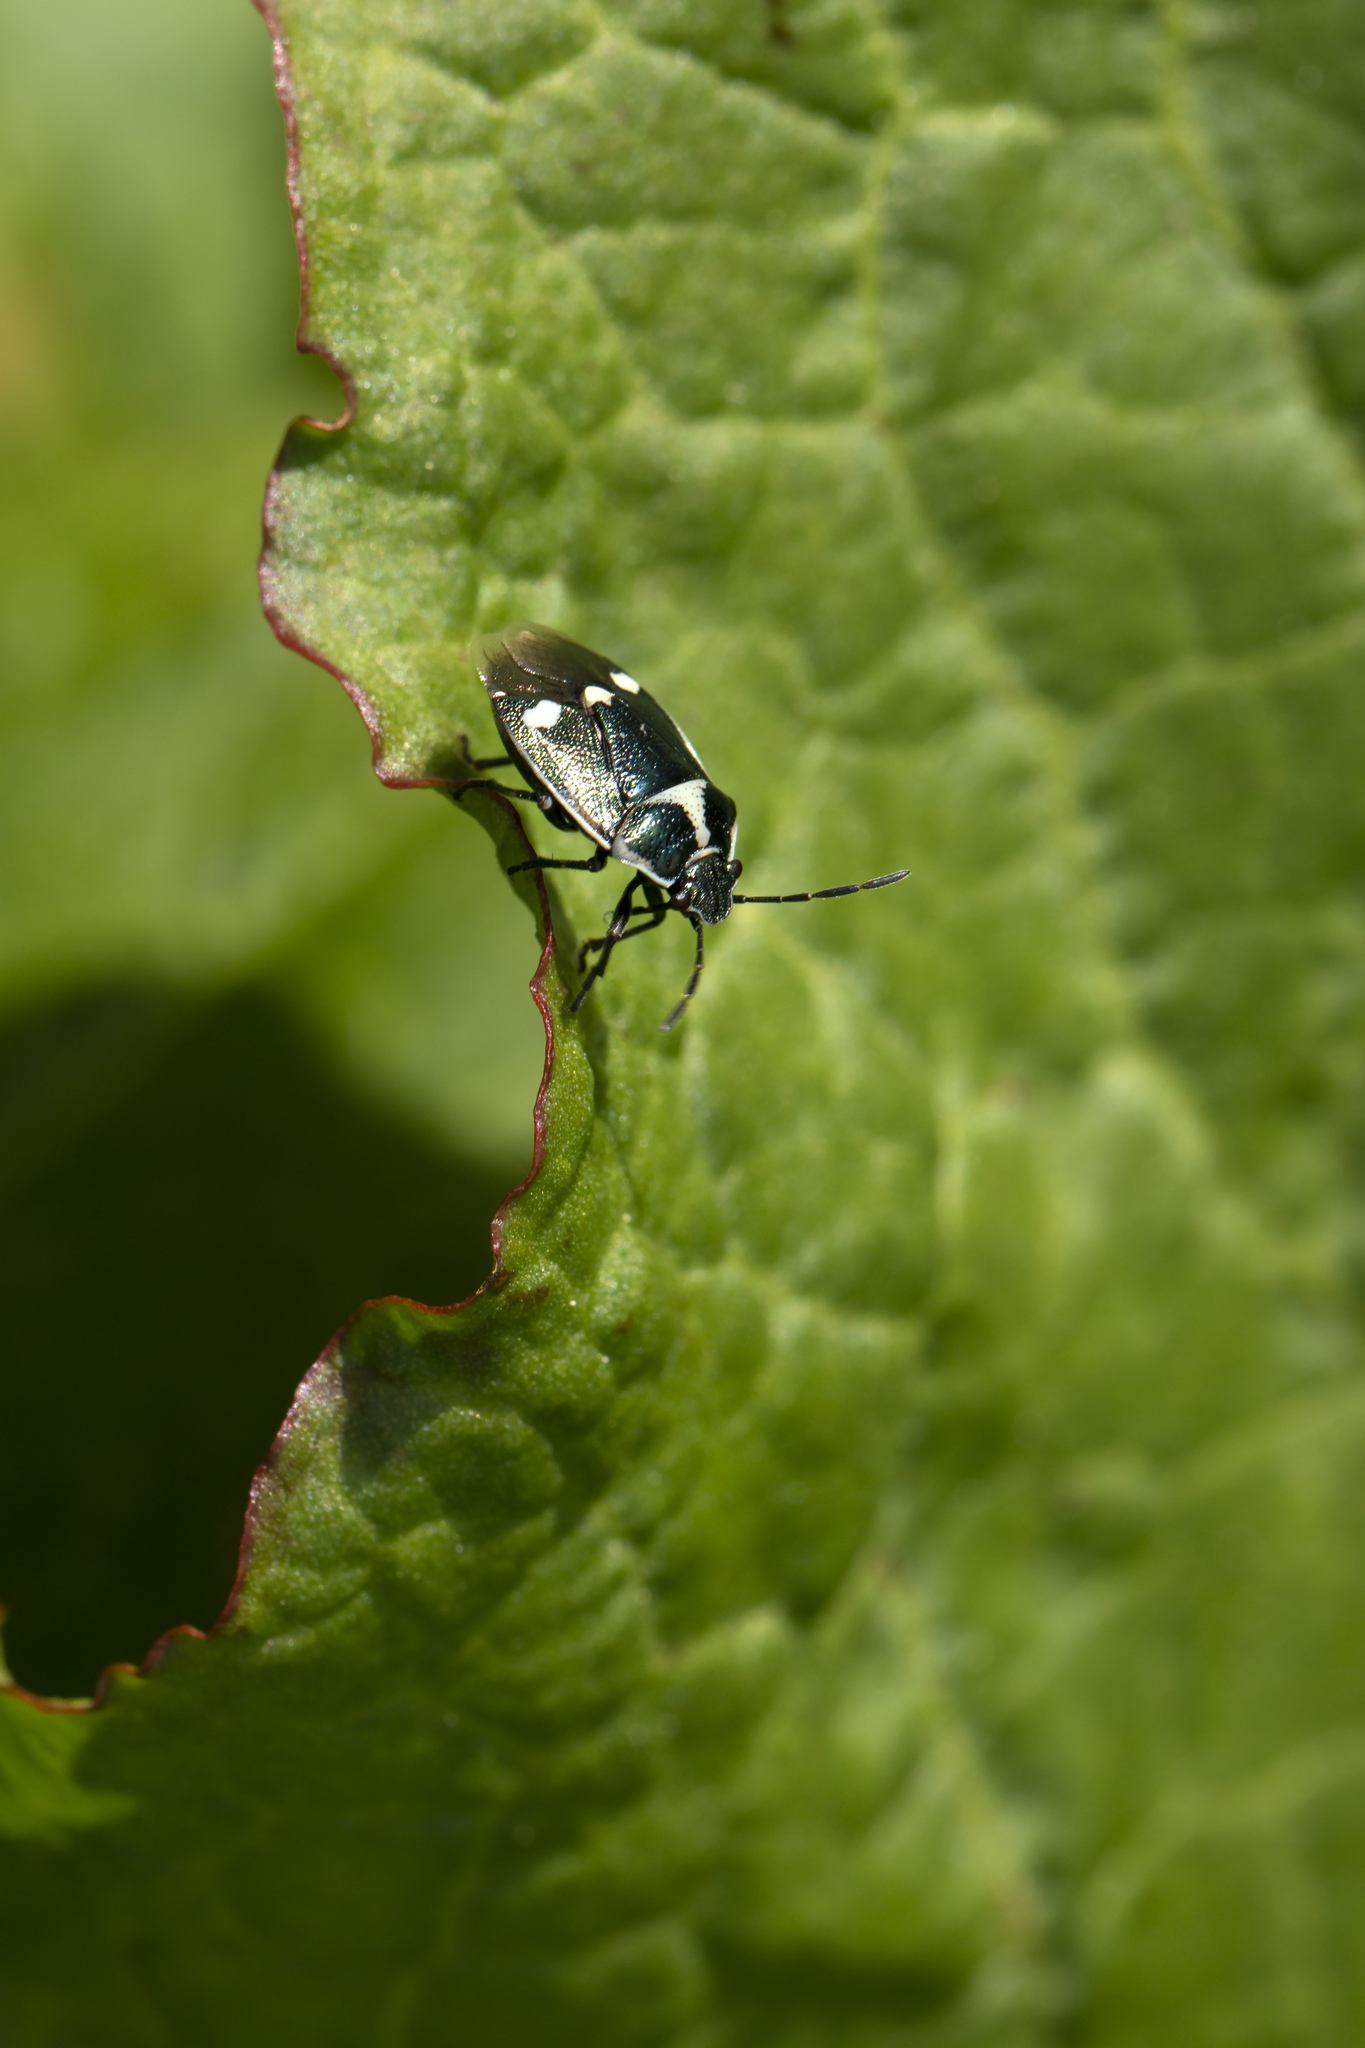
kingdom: Animalia
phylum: Arthropoda
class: Insecta
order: Hemiptera
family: Pentatomidae
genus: Eurydema
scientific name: Eurydema oleracea
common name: Cabbage bug
